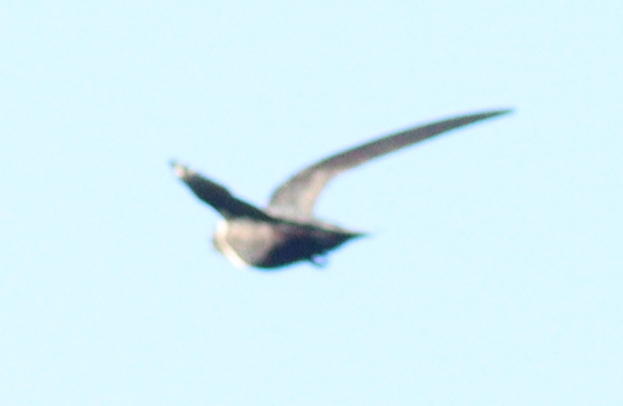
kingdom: Animalia
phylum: Chordata
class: Aves
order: Apodiformes
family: Apodidae
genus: Streptoprocne
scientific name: Streptoprocne zonaris
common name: White-collared swift
